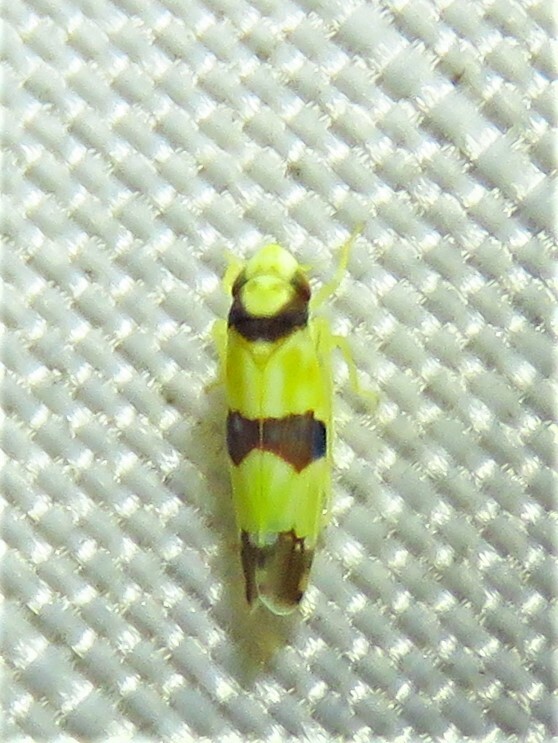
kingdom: Animalia
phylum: Arthropoda
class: Insecta
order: Hemiptera
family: Cicadellidae
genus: Erythroneura
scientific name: Erythroneura calycula
